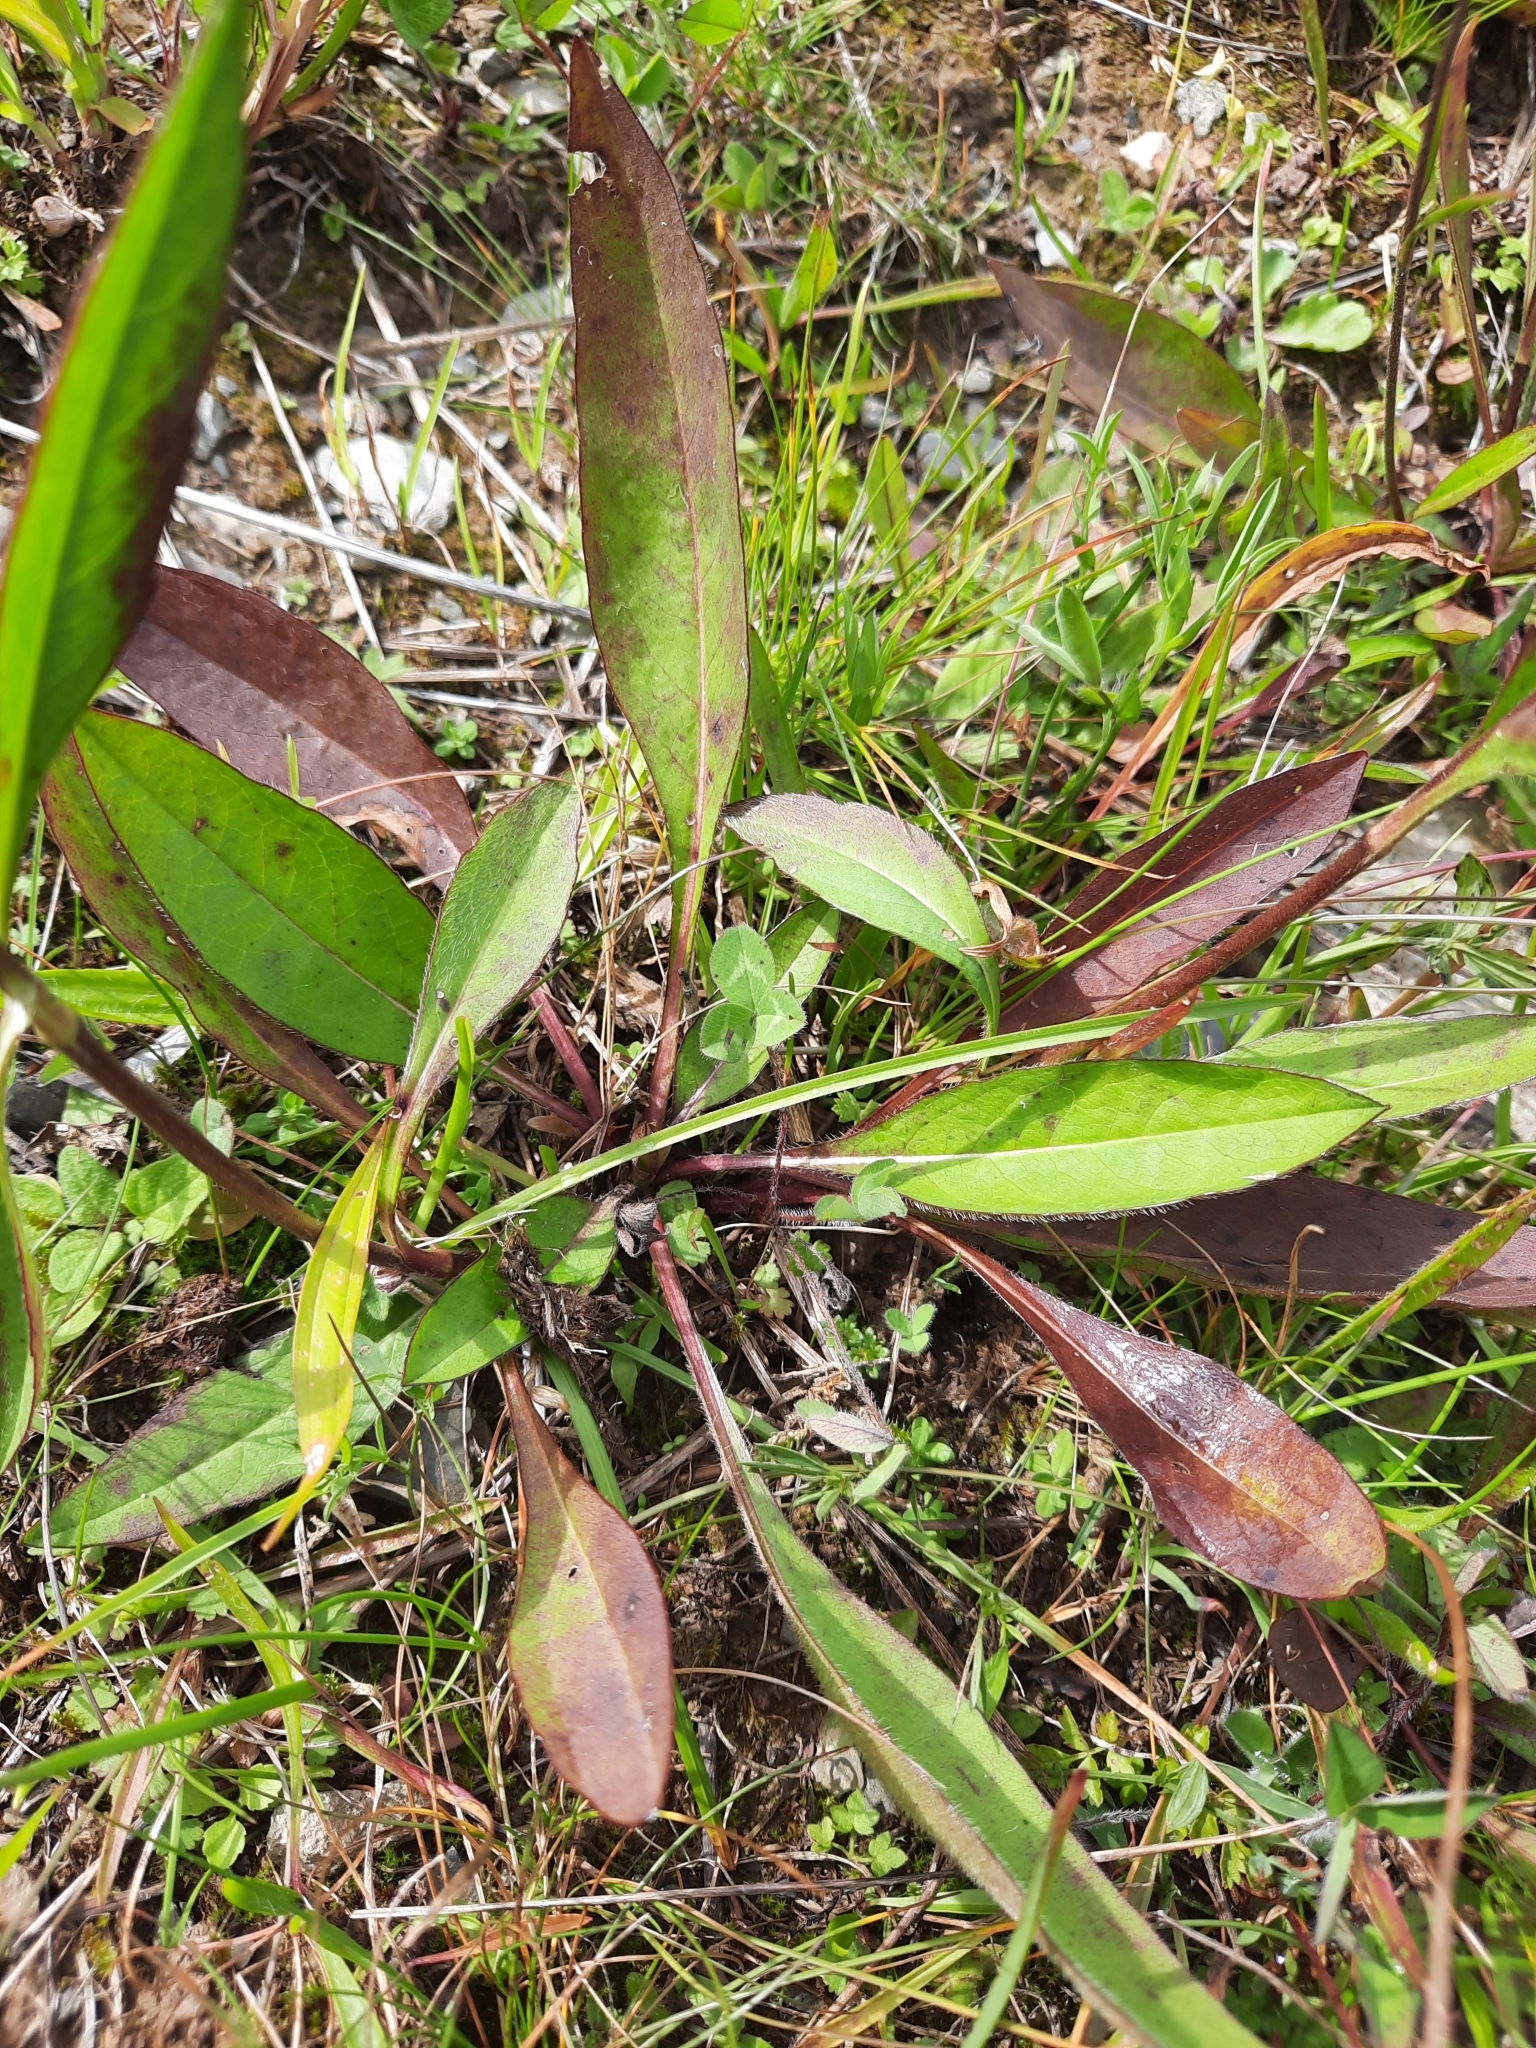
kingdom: Plantae
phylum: Tracheophyta
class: Magnoliopsida
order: Dipsacales
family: Caprifoliaceae
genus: Succisa
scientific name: Succisa pratensis
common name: Devil's-bit
